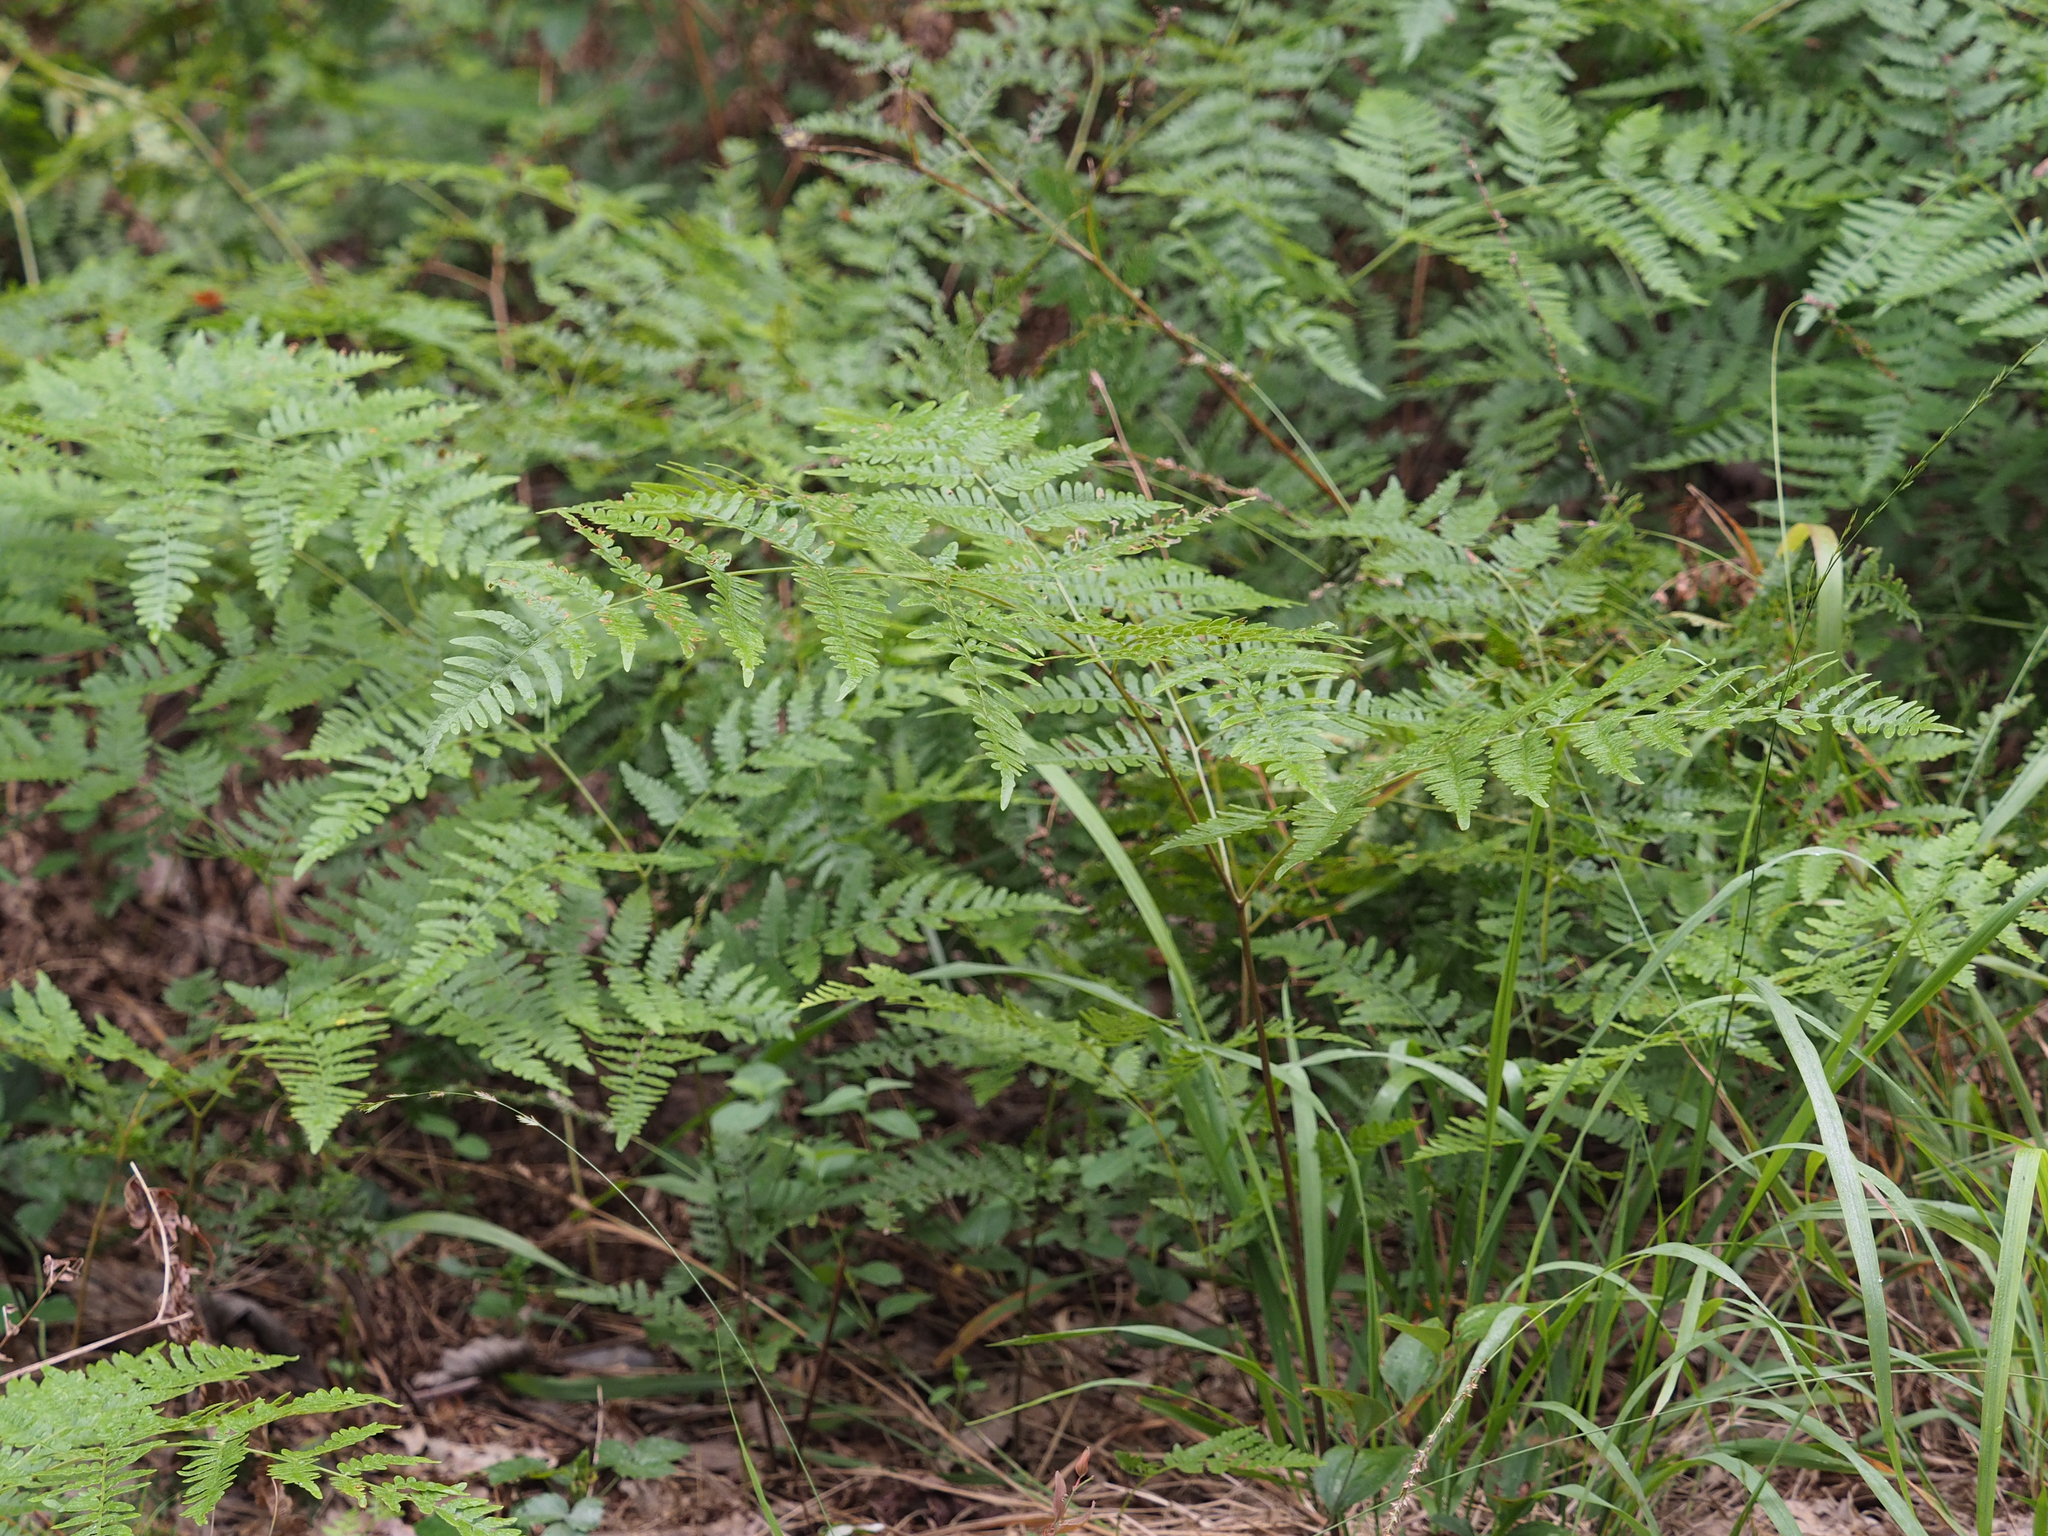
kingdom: Plantae
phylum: Tracheophyta
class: Polypodiopsida
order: Polypodiales
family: Dennstaedtiaceae
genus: Pteridium
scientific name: Pteridium aquilinum
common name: Bracken
